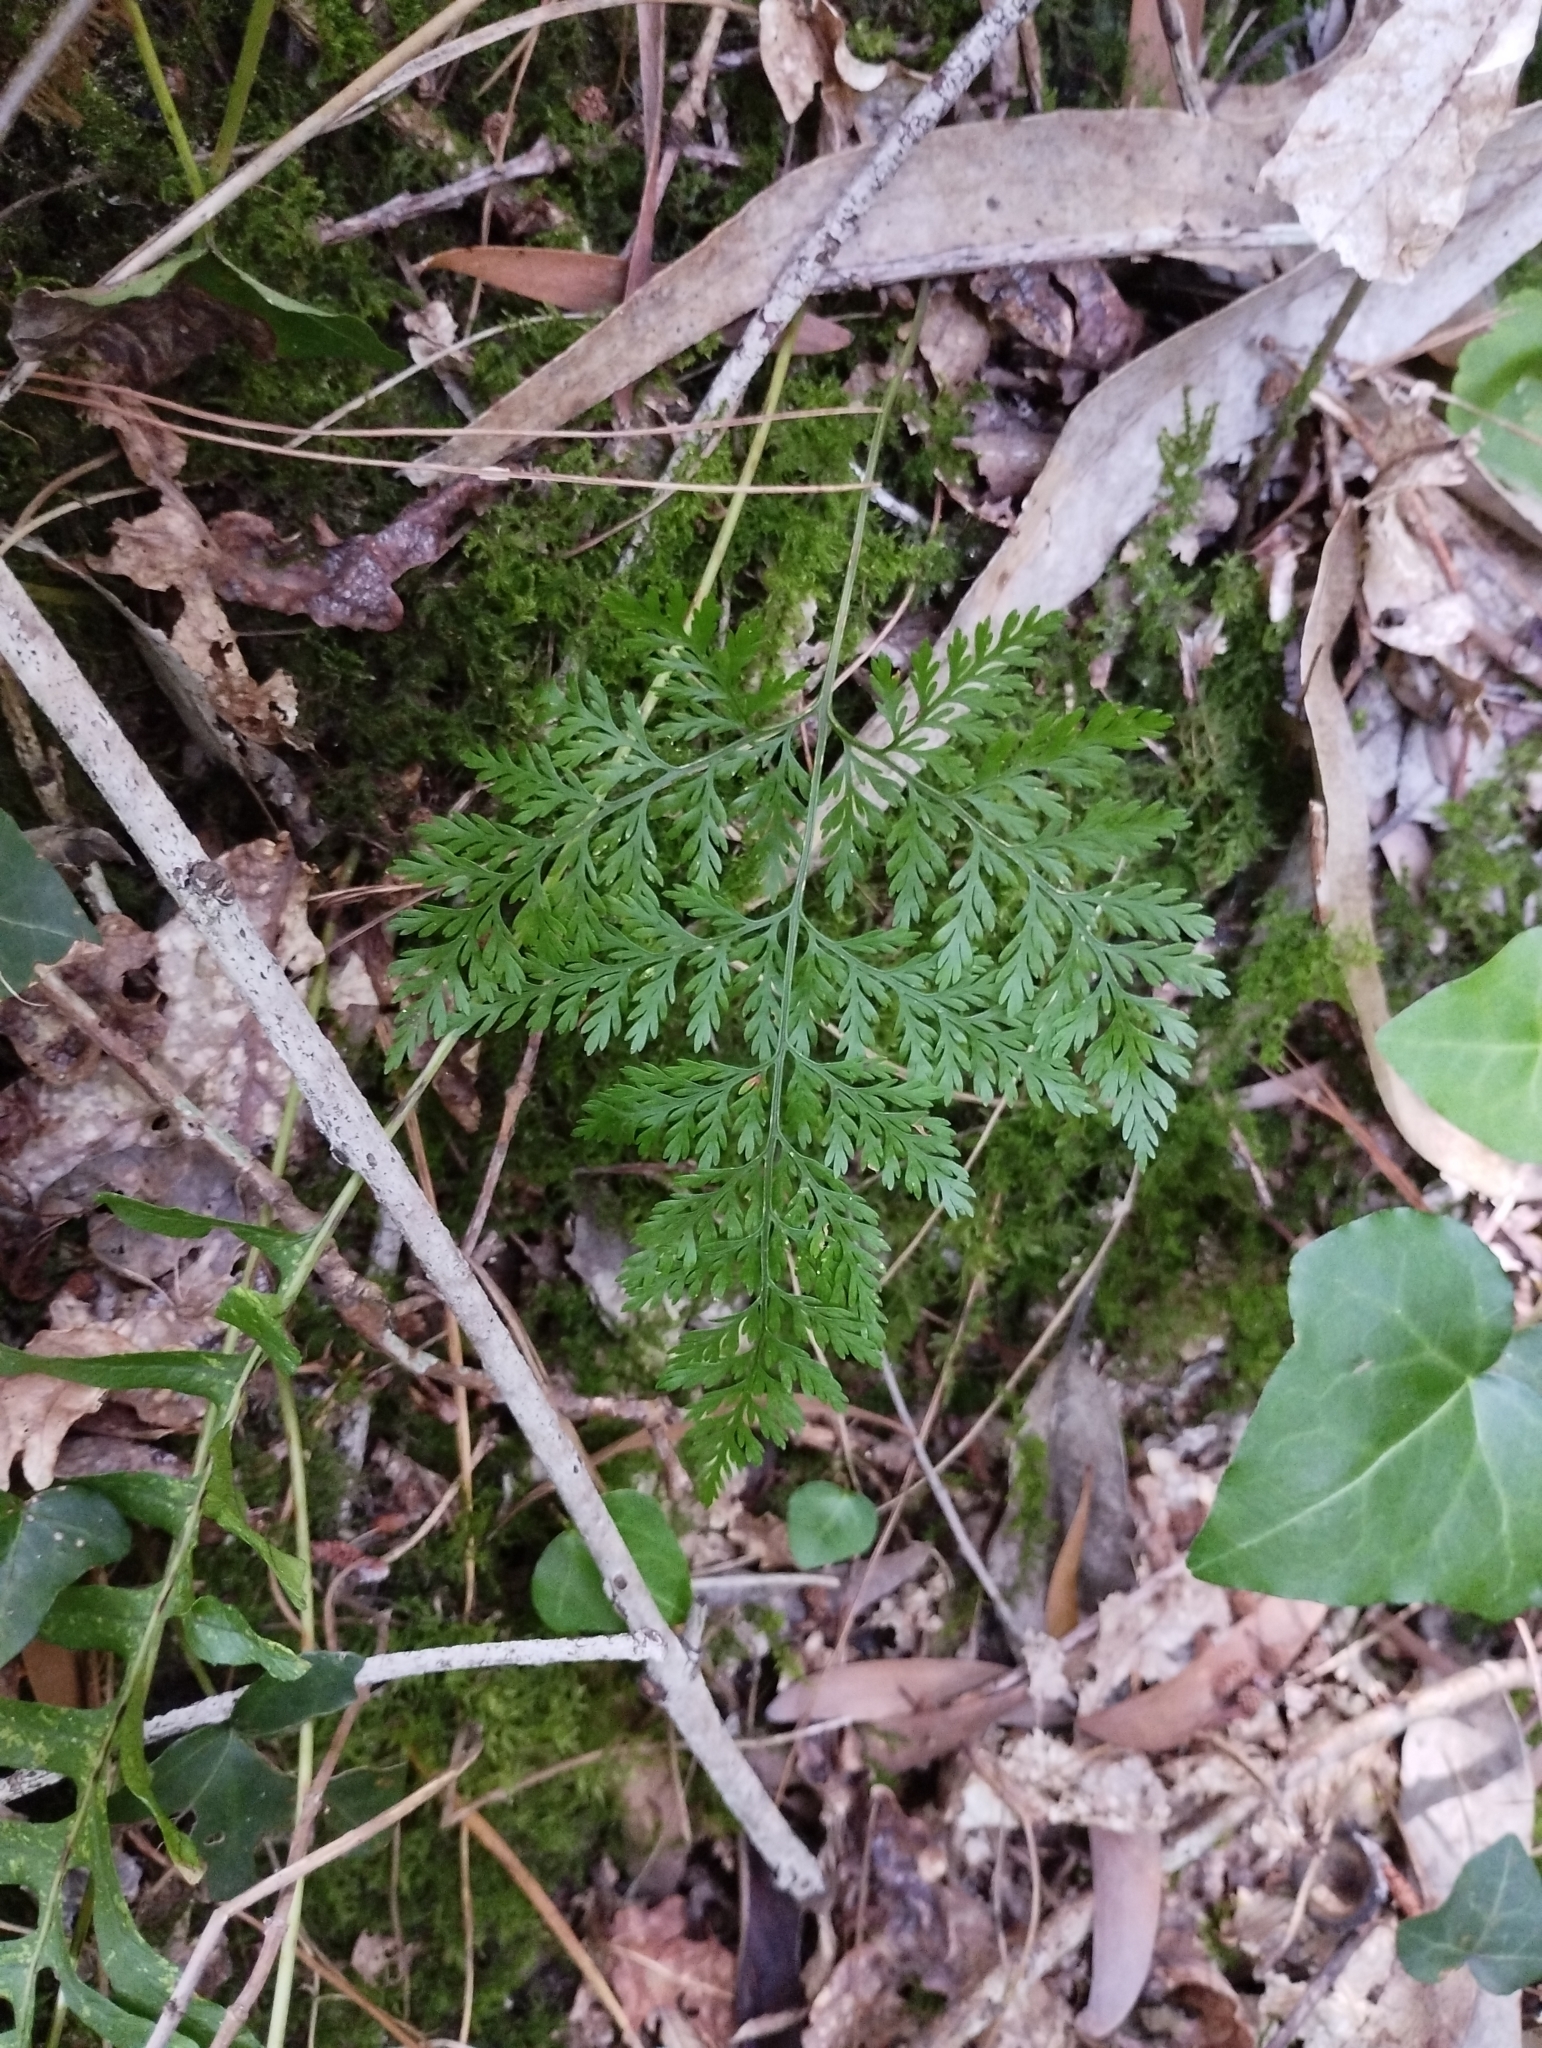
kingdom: Plantae
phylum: Tracheophyta
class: Polypodiopsida
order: Polypodiales
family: Davalliaceae
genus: Davallia
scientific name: Davallia canariensis
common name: Hare's-foot fern
